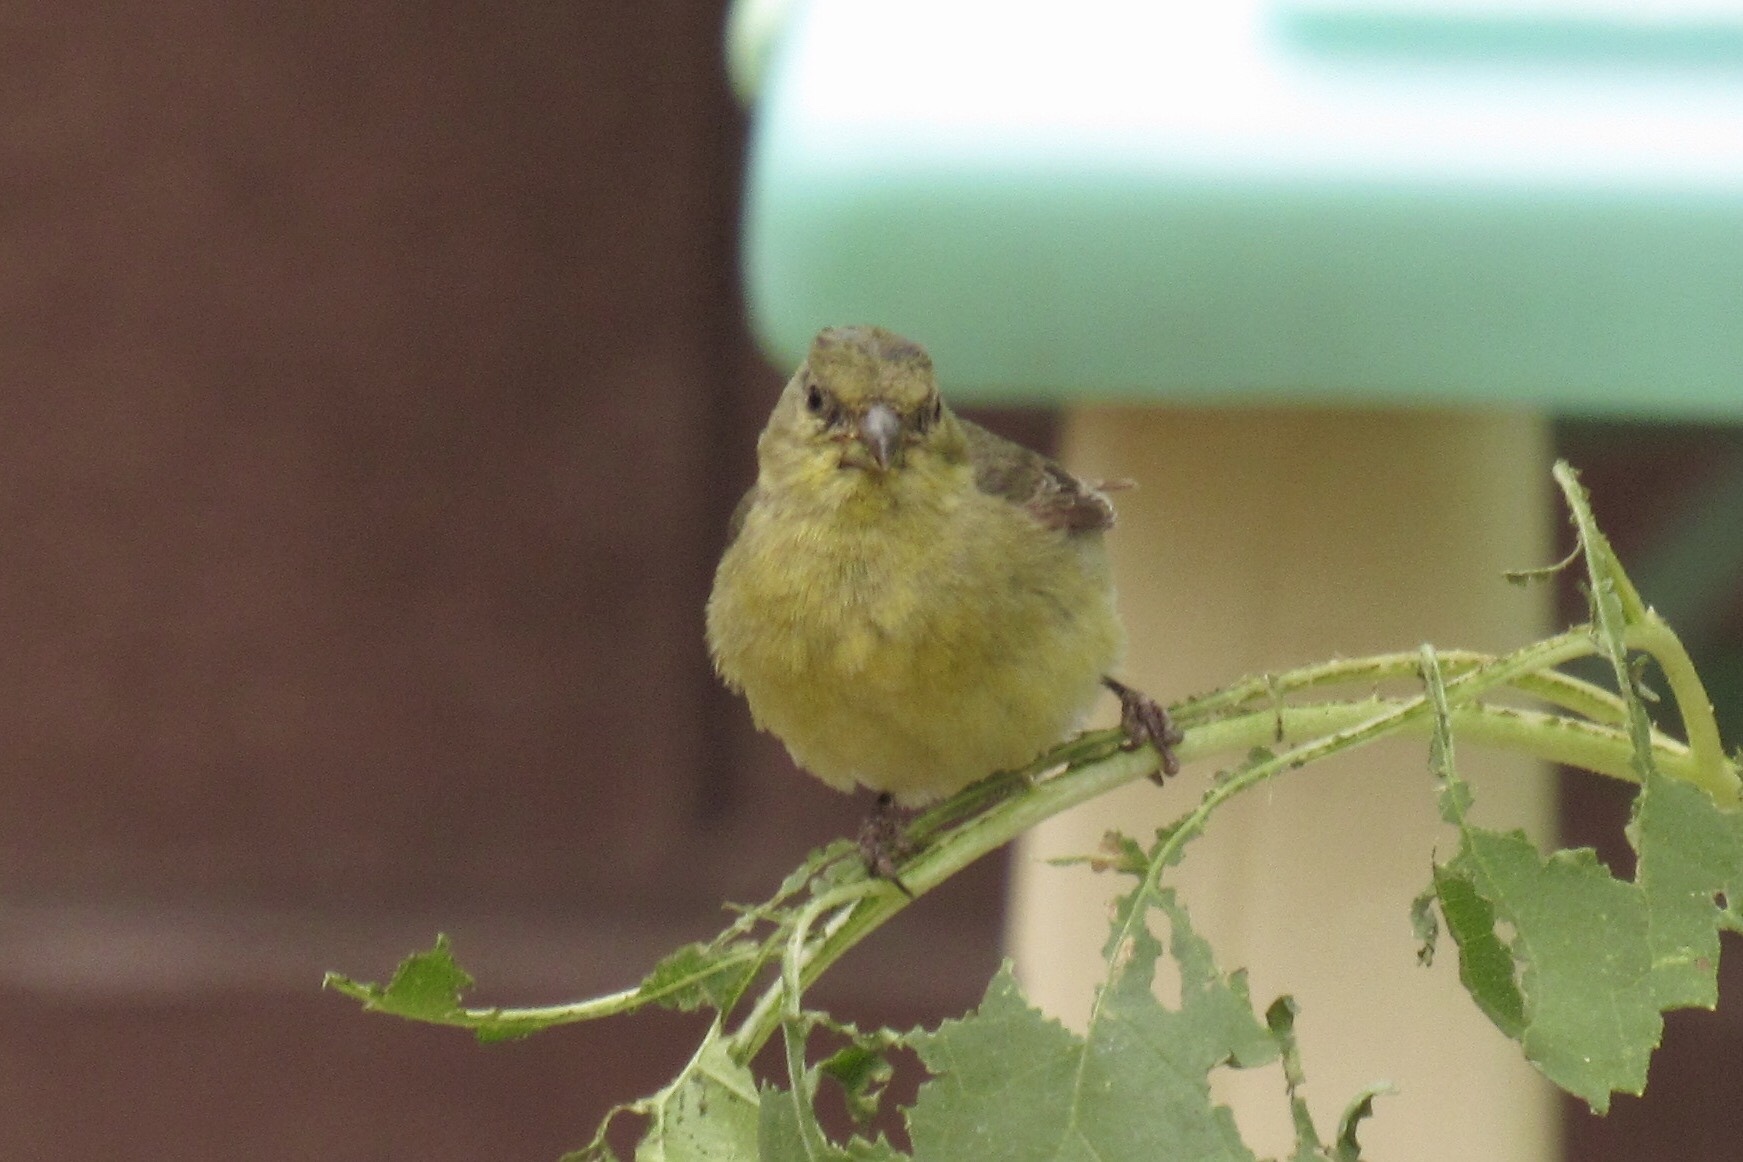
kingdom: Animalia
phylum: Chordata
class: Aves
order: Passeriformes
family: Fringillidae
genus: Spinus
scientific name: Spinus psaltria
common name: Lesser goldfinch
